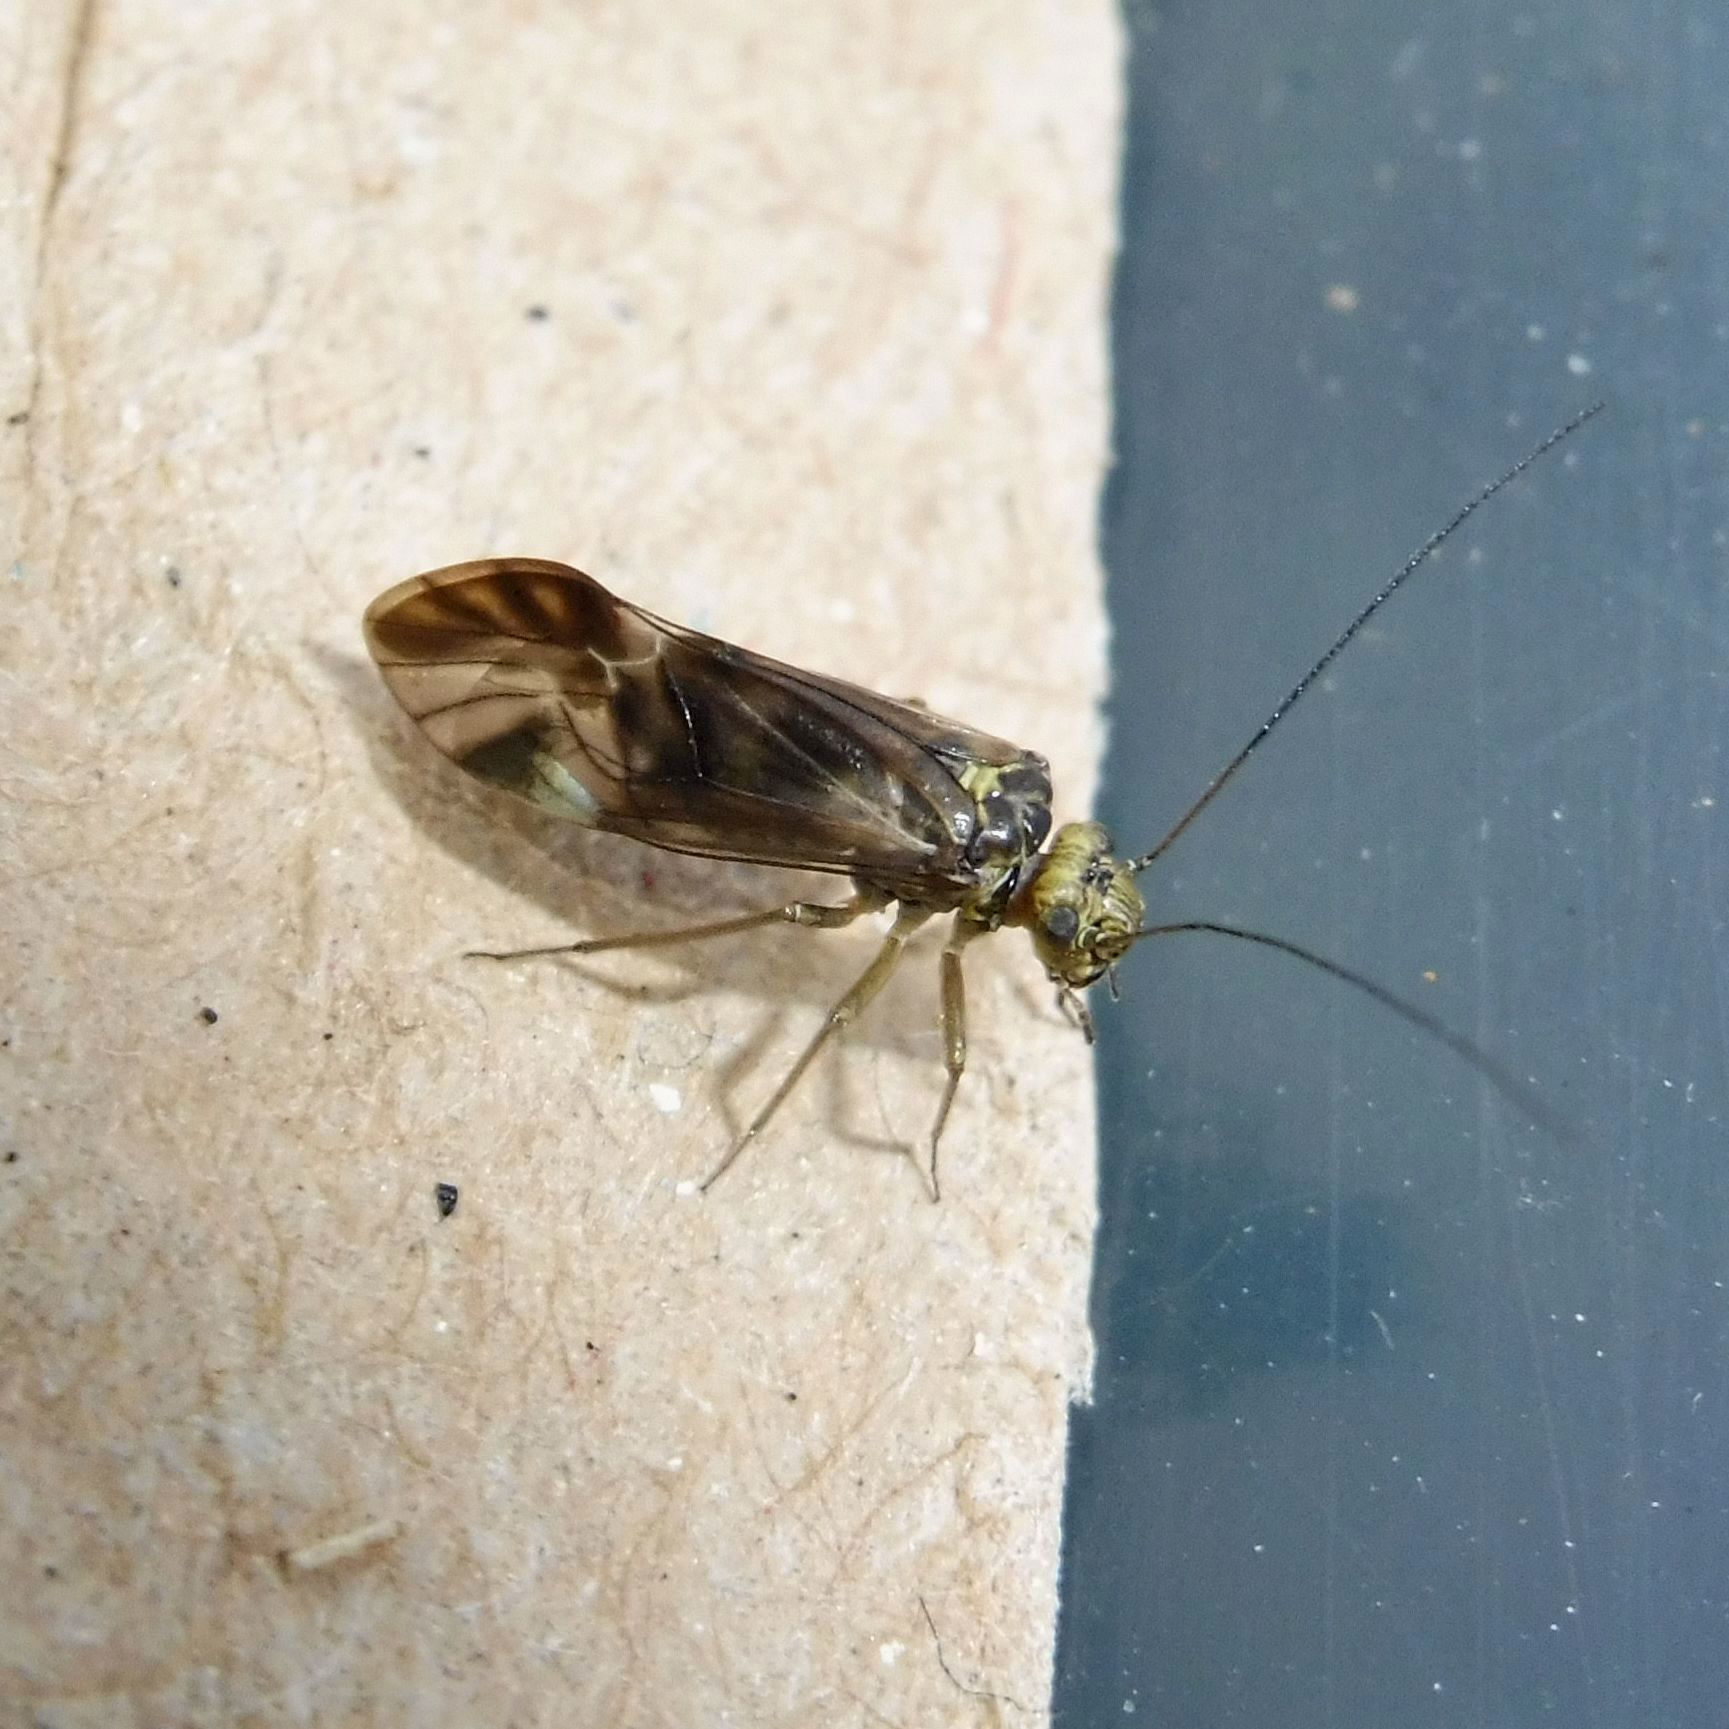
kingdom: Animalia
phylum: Arthropoda
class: Insecta
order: Psocodea
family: Psocidae
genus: Metylophorus
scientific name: Metylophorus nebulosus
